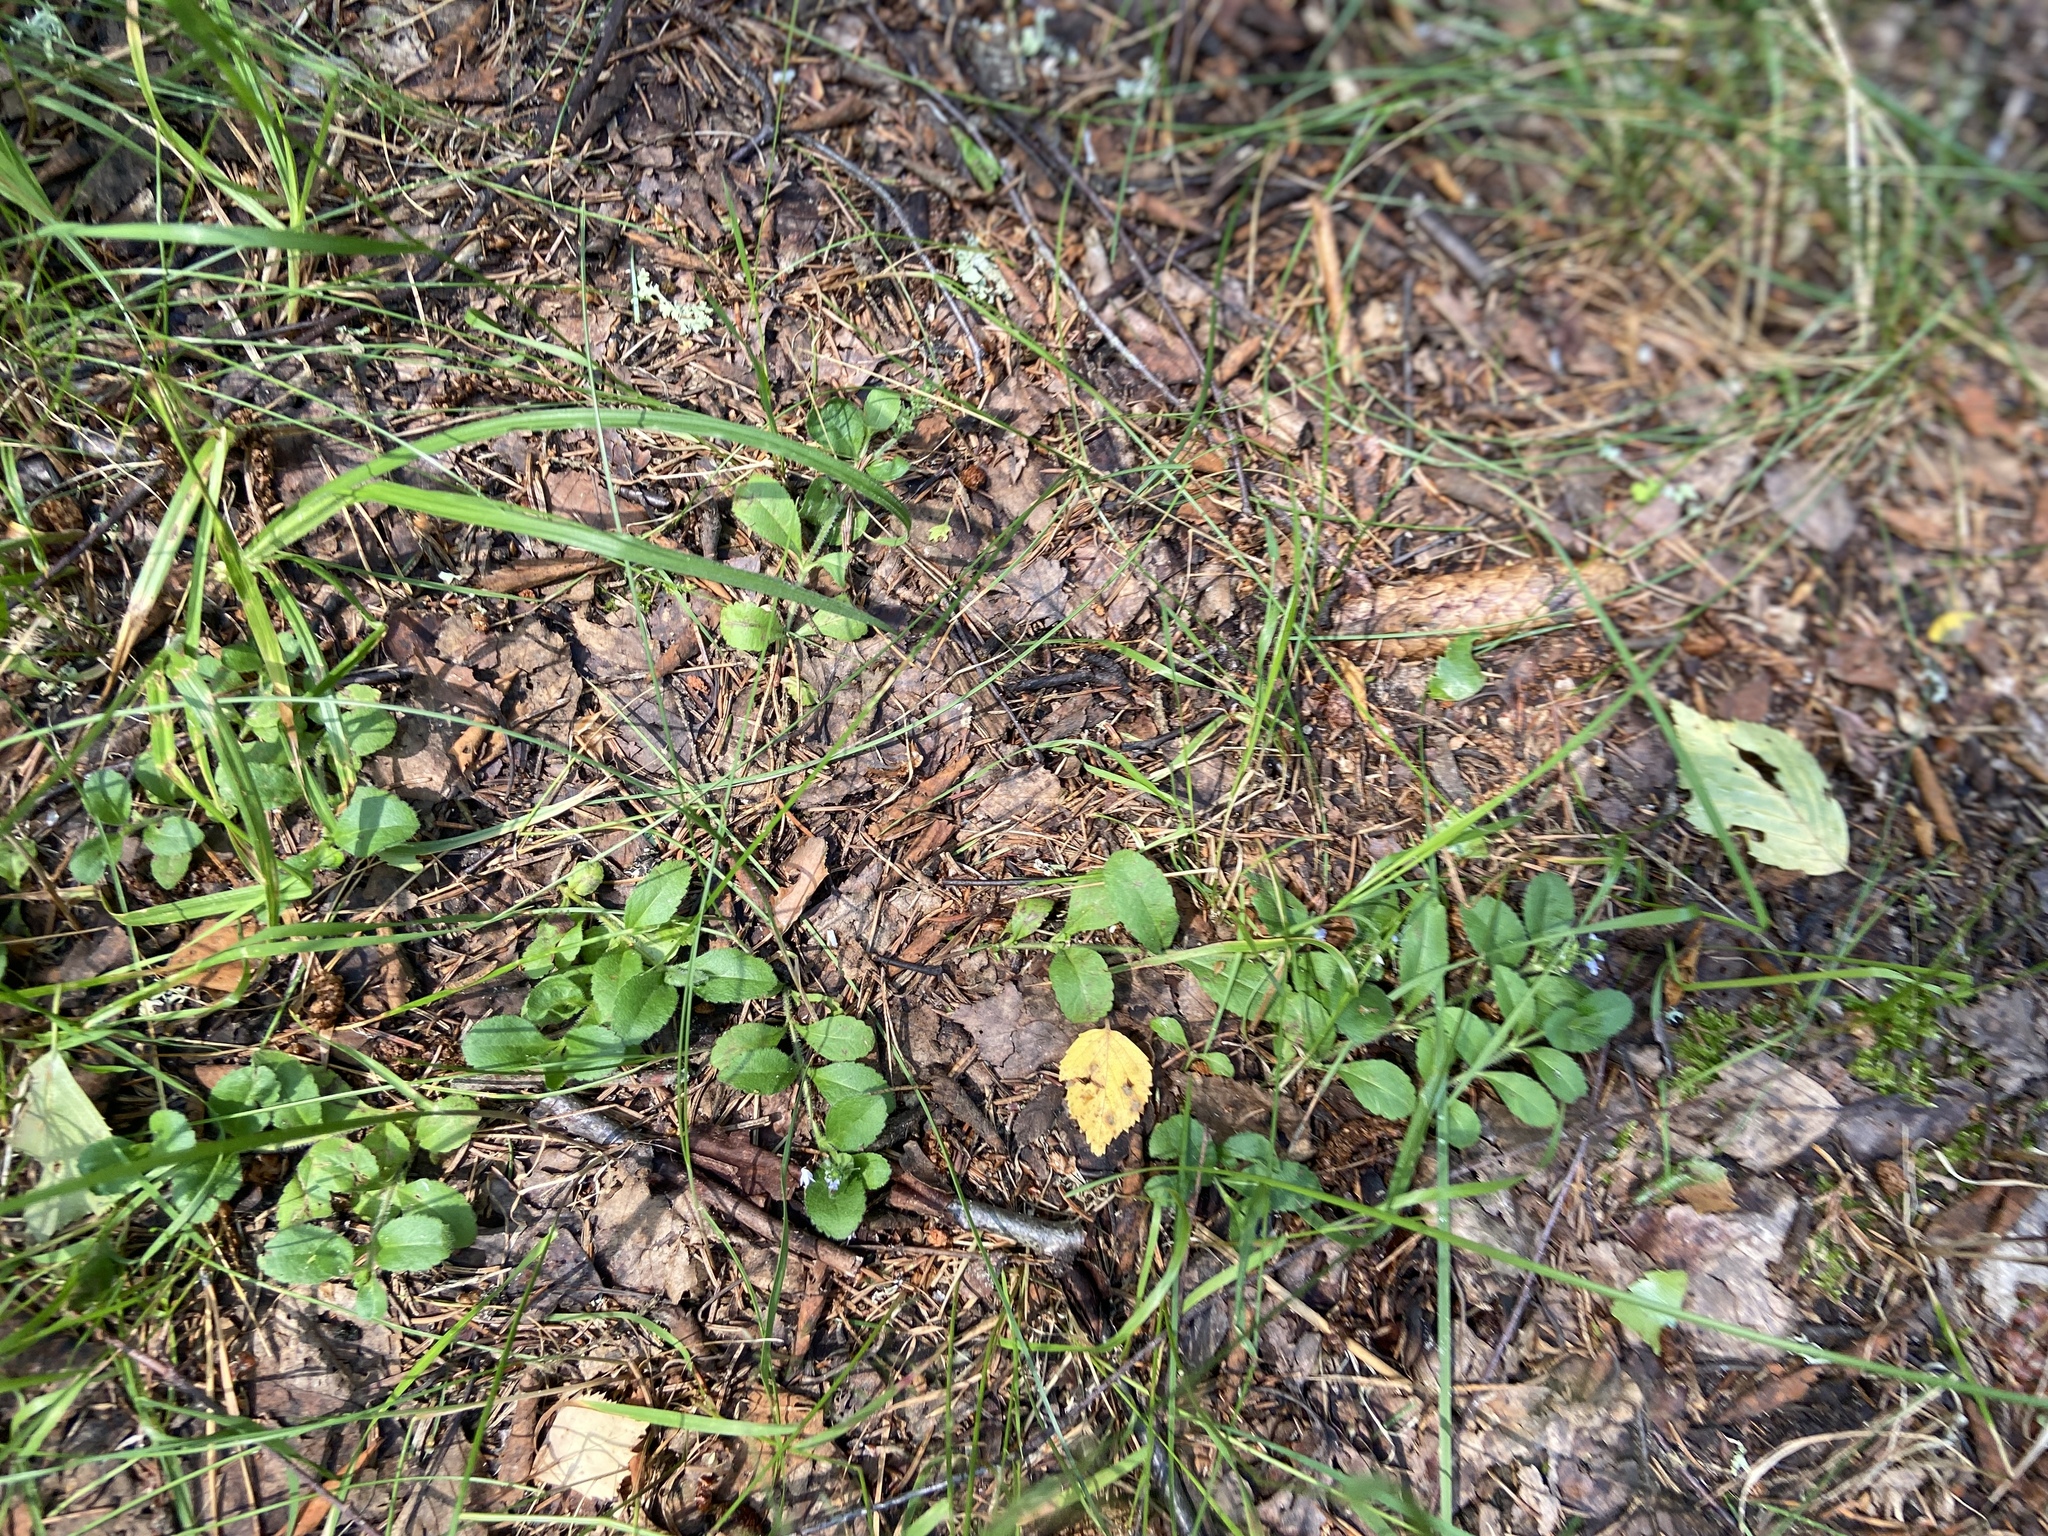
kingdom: Plantae
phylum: Tracheophyta
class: Magnoliopsida
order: Lamiales
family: Plantaginaceae
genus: Veronica
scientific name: Veronica officinalis
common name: Common speedwell
